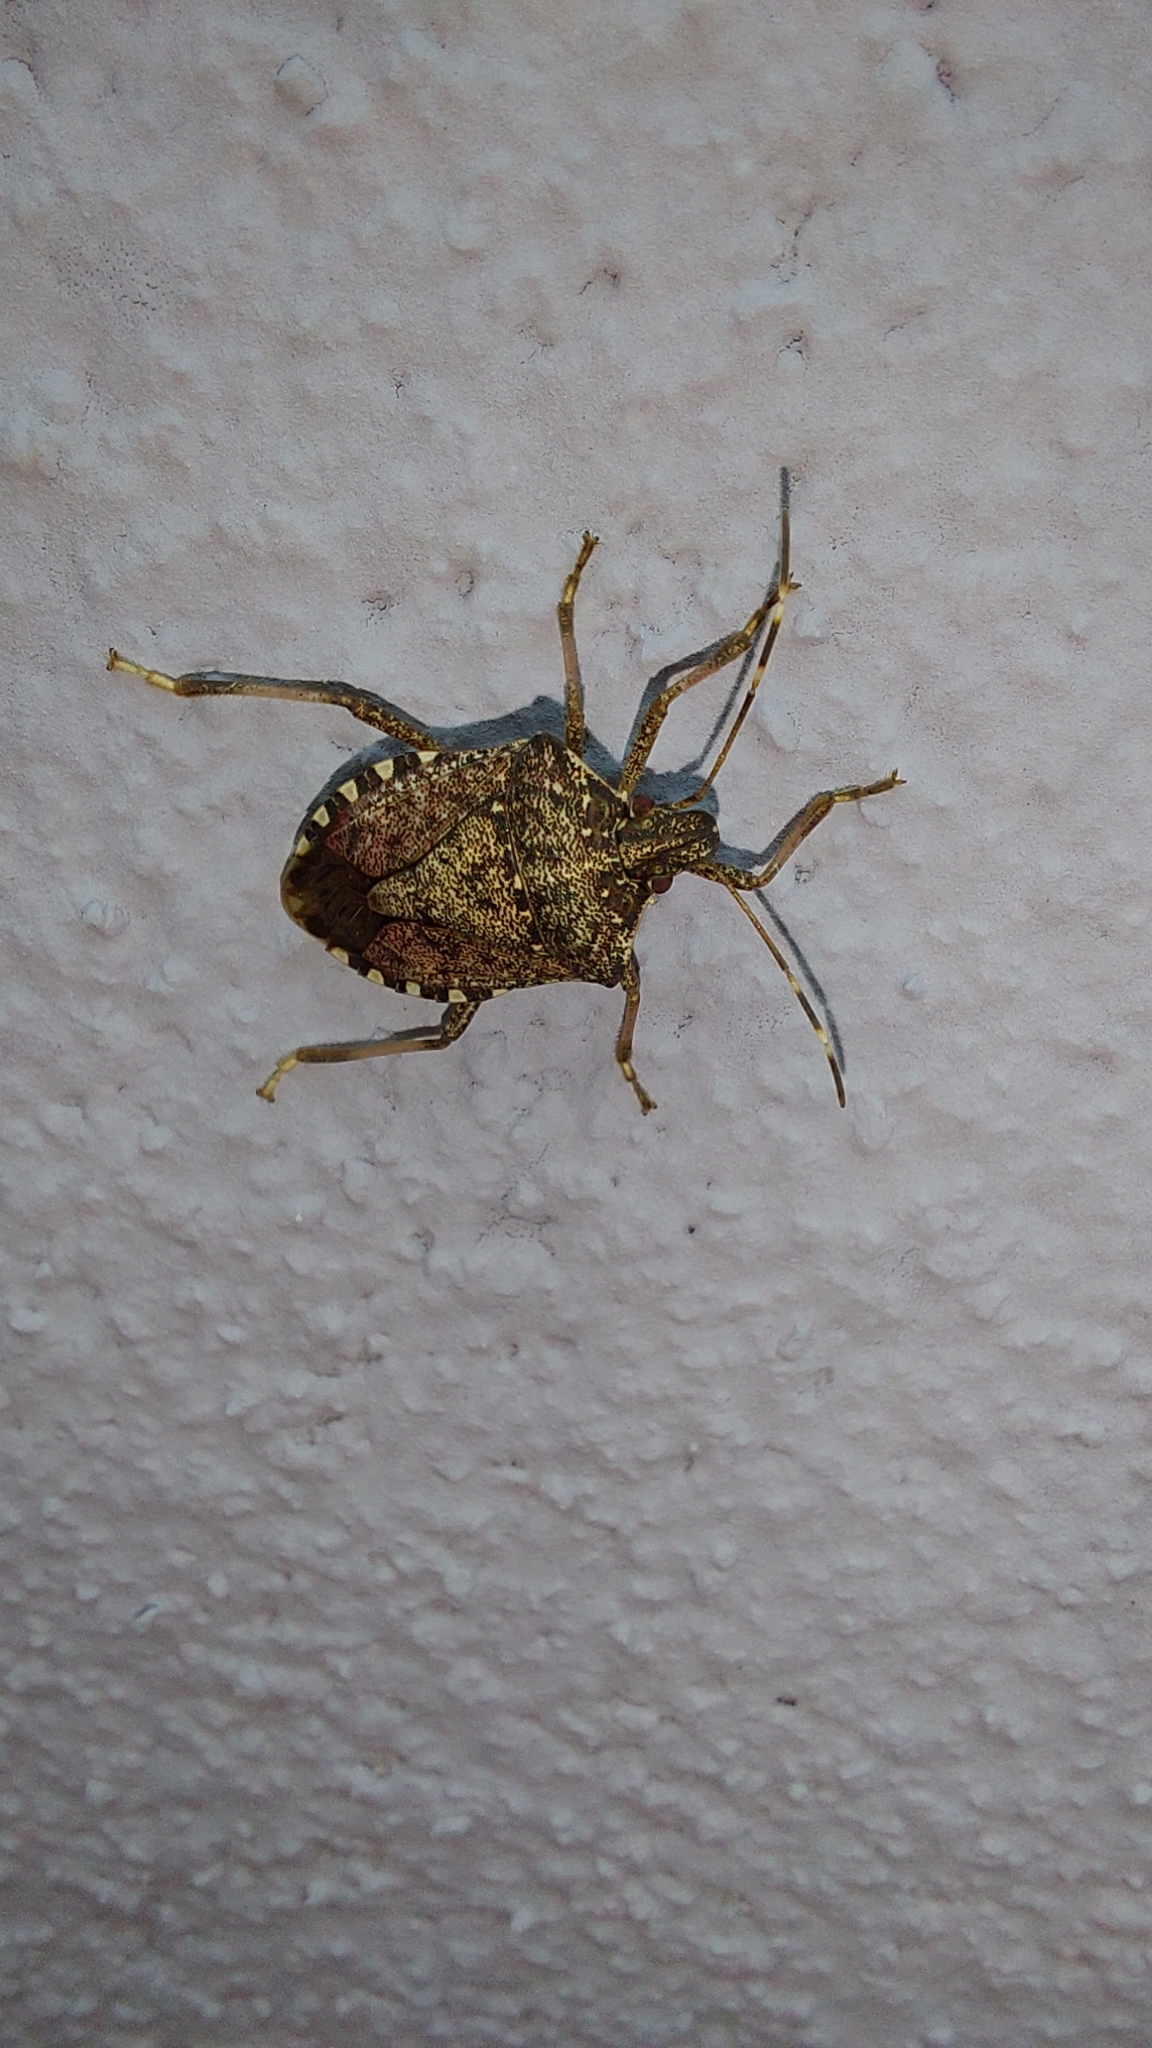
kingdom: Animalia
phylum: Arthropoda
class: Insecta
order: Hemiptera
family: Pentatomidae
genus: Halyomorpha
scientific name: Halyomorpha halys
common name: Brown marmorated stink bug
